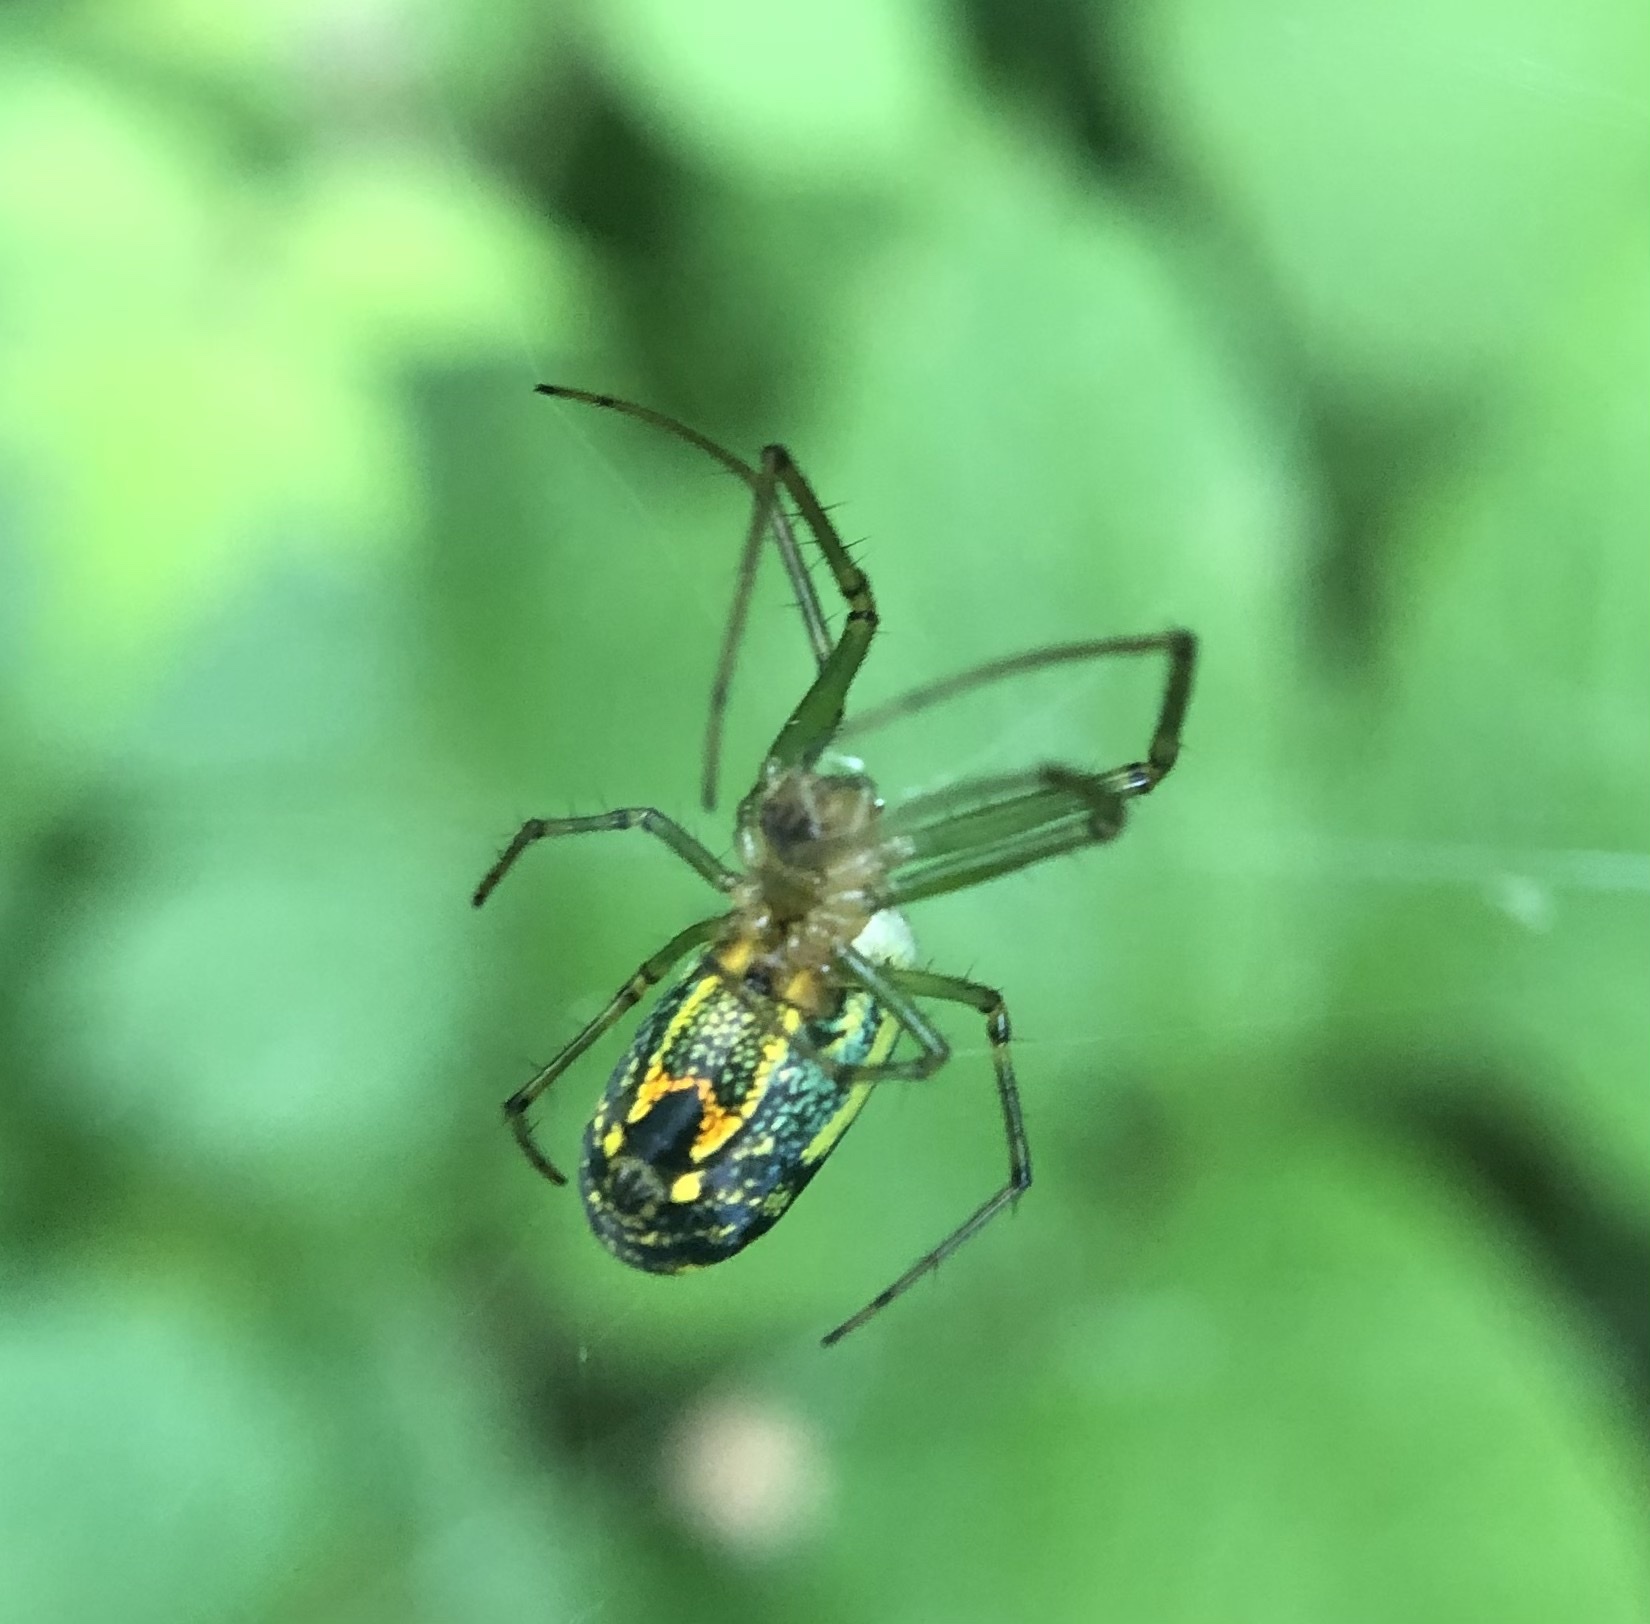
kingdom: Animalia
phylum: Arthropoda
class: Arachnida
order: Araneae
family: Tetragnathidae
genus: Leucauge
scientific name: Leucauge venusta
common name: Longjawed orb weavers
